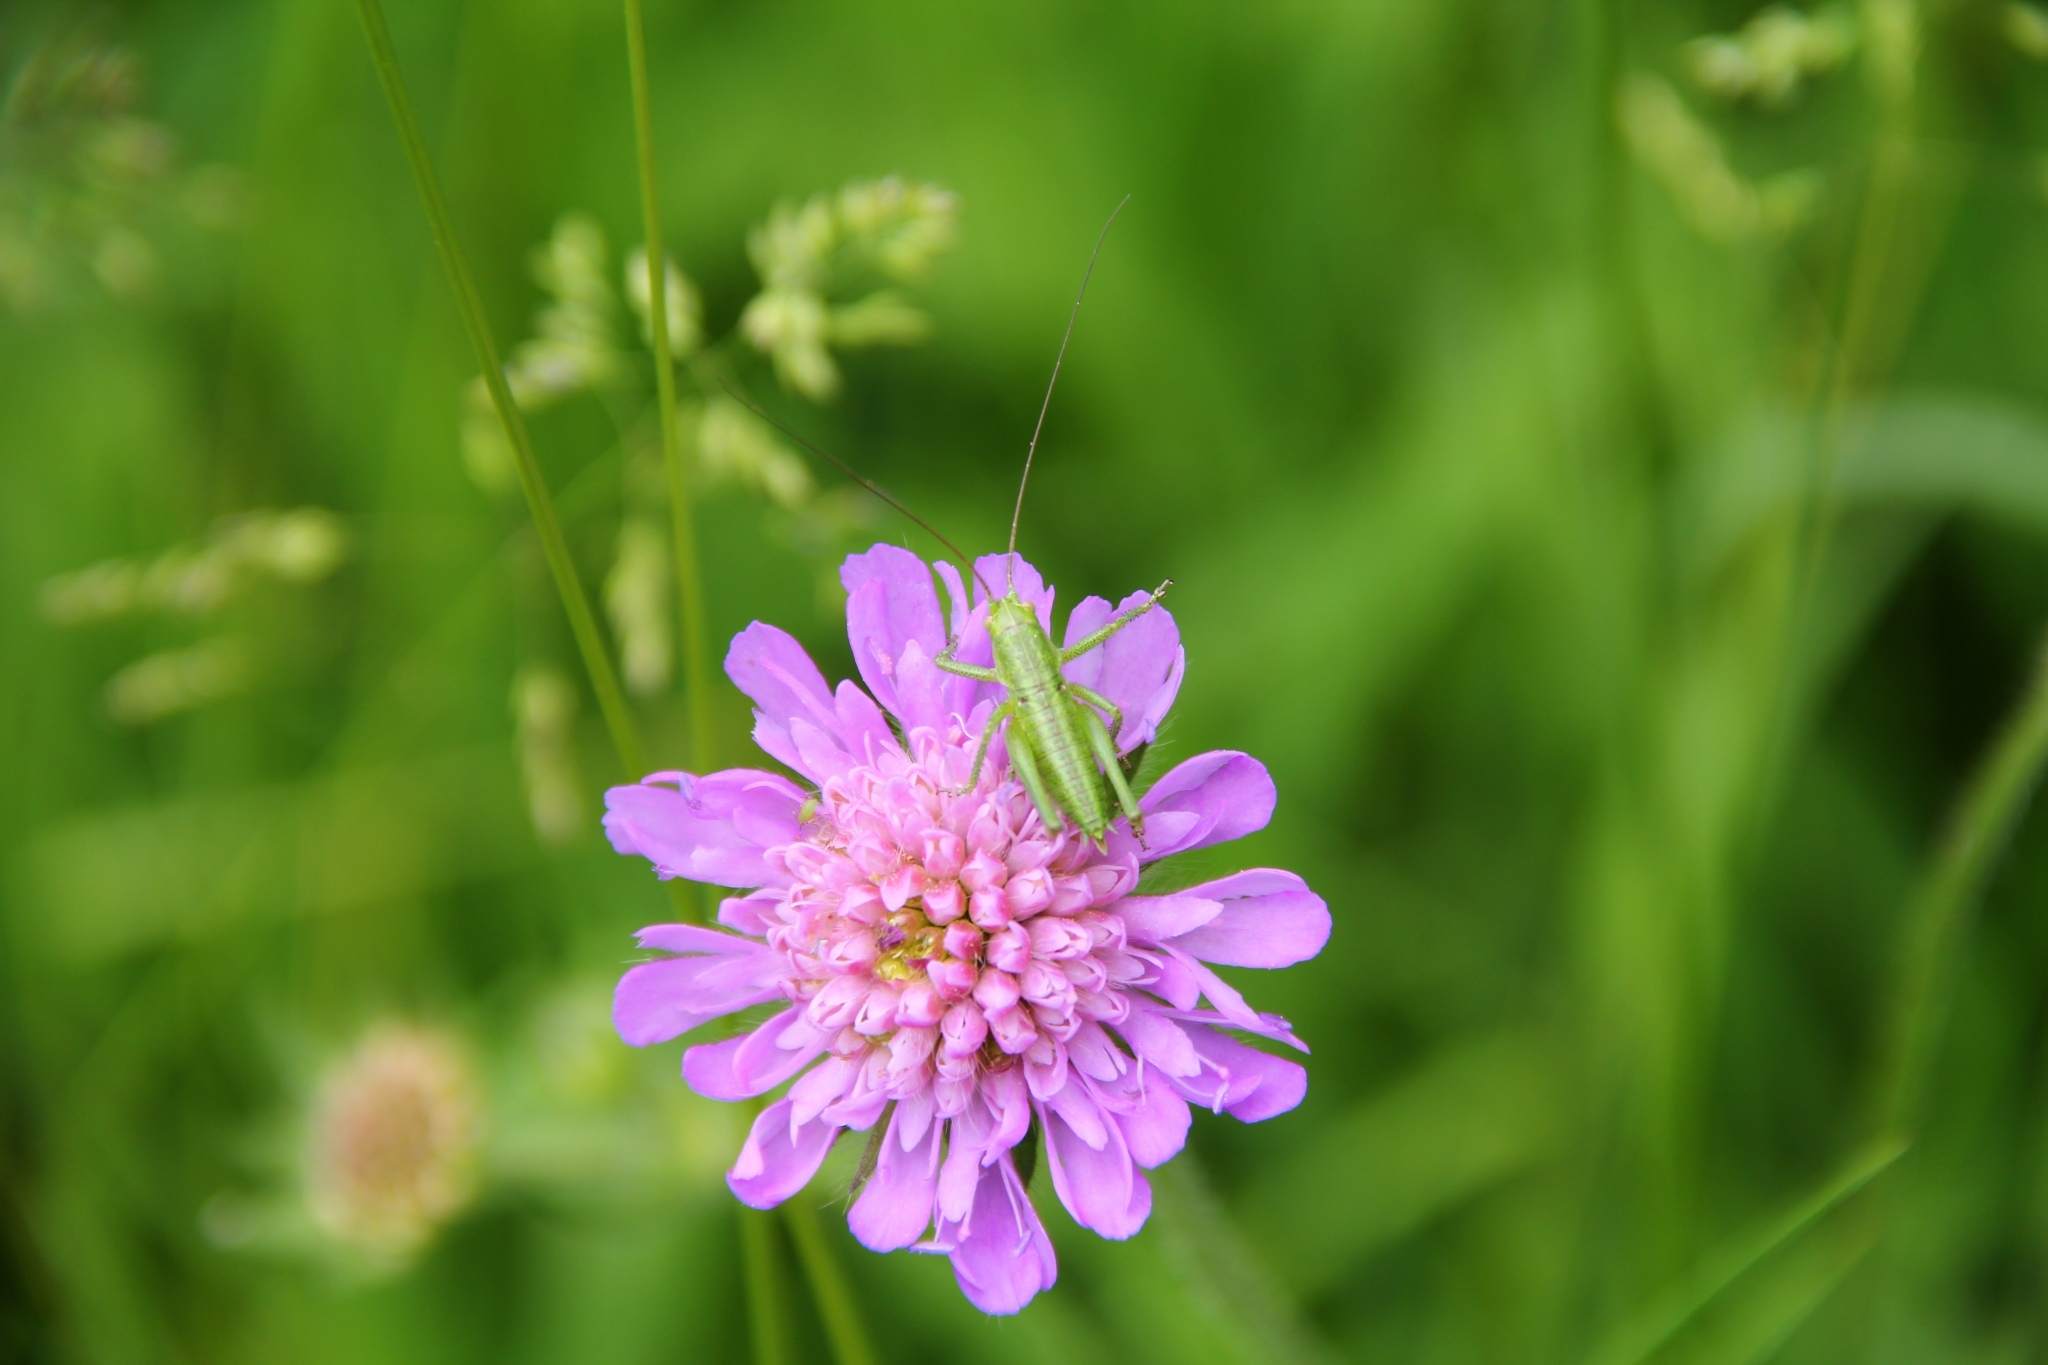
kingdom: Animalia
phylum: Arthropoda
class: Insecta
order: Orthoptera
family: Tettigoniidae
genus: Tettigonia
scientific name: Tettigonia viridissima
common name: Great green bush-cricket
